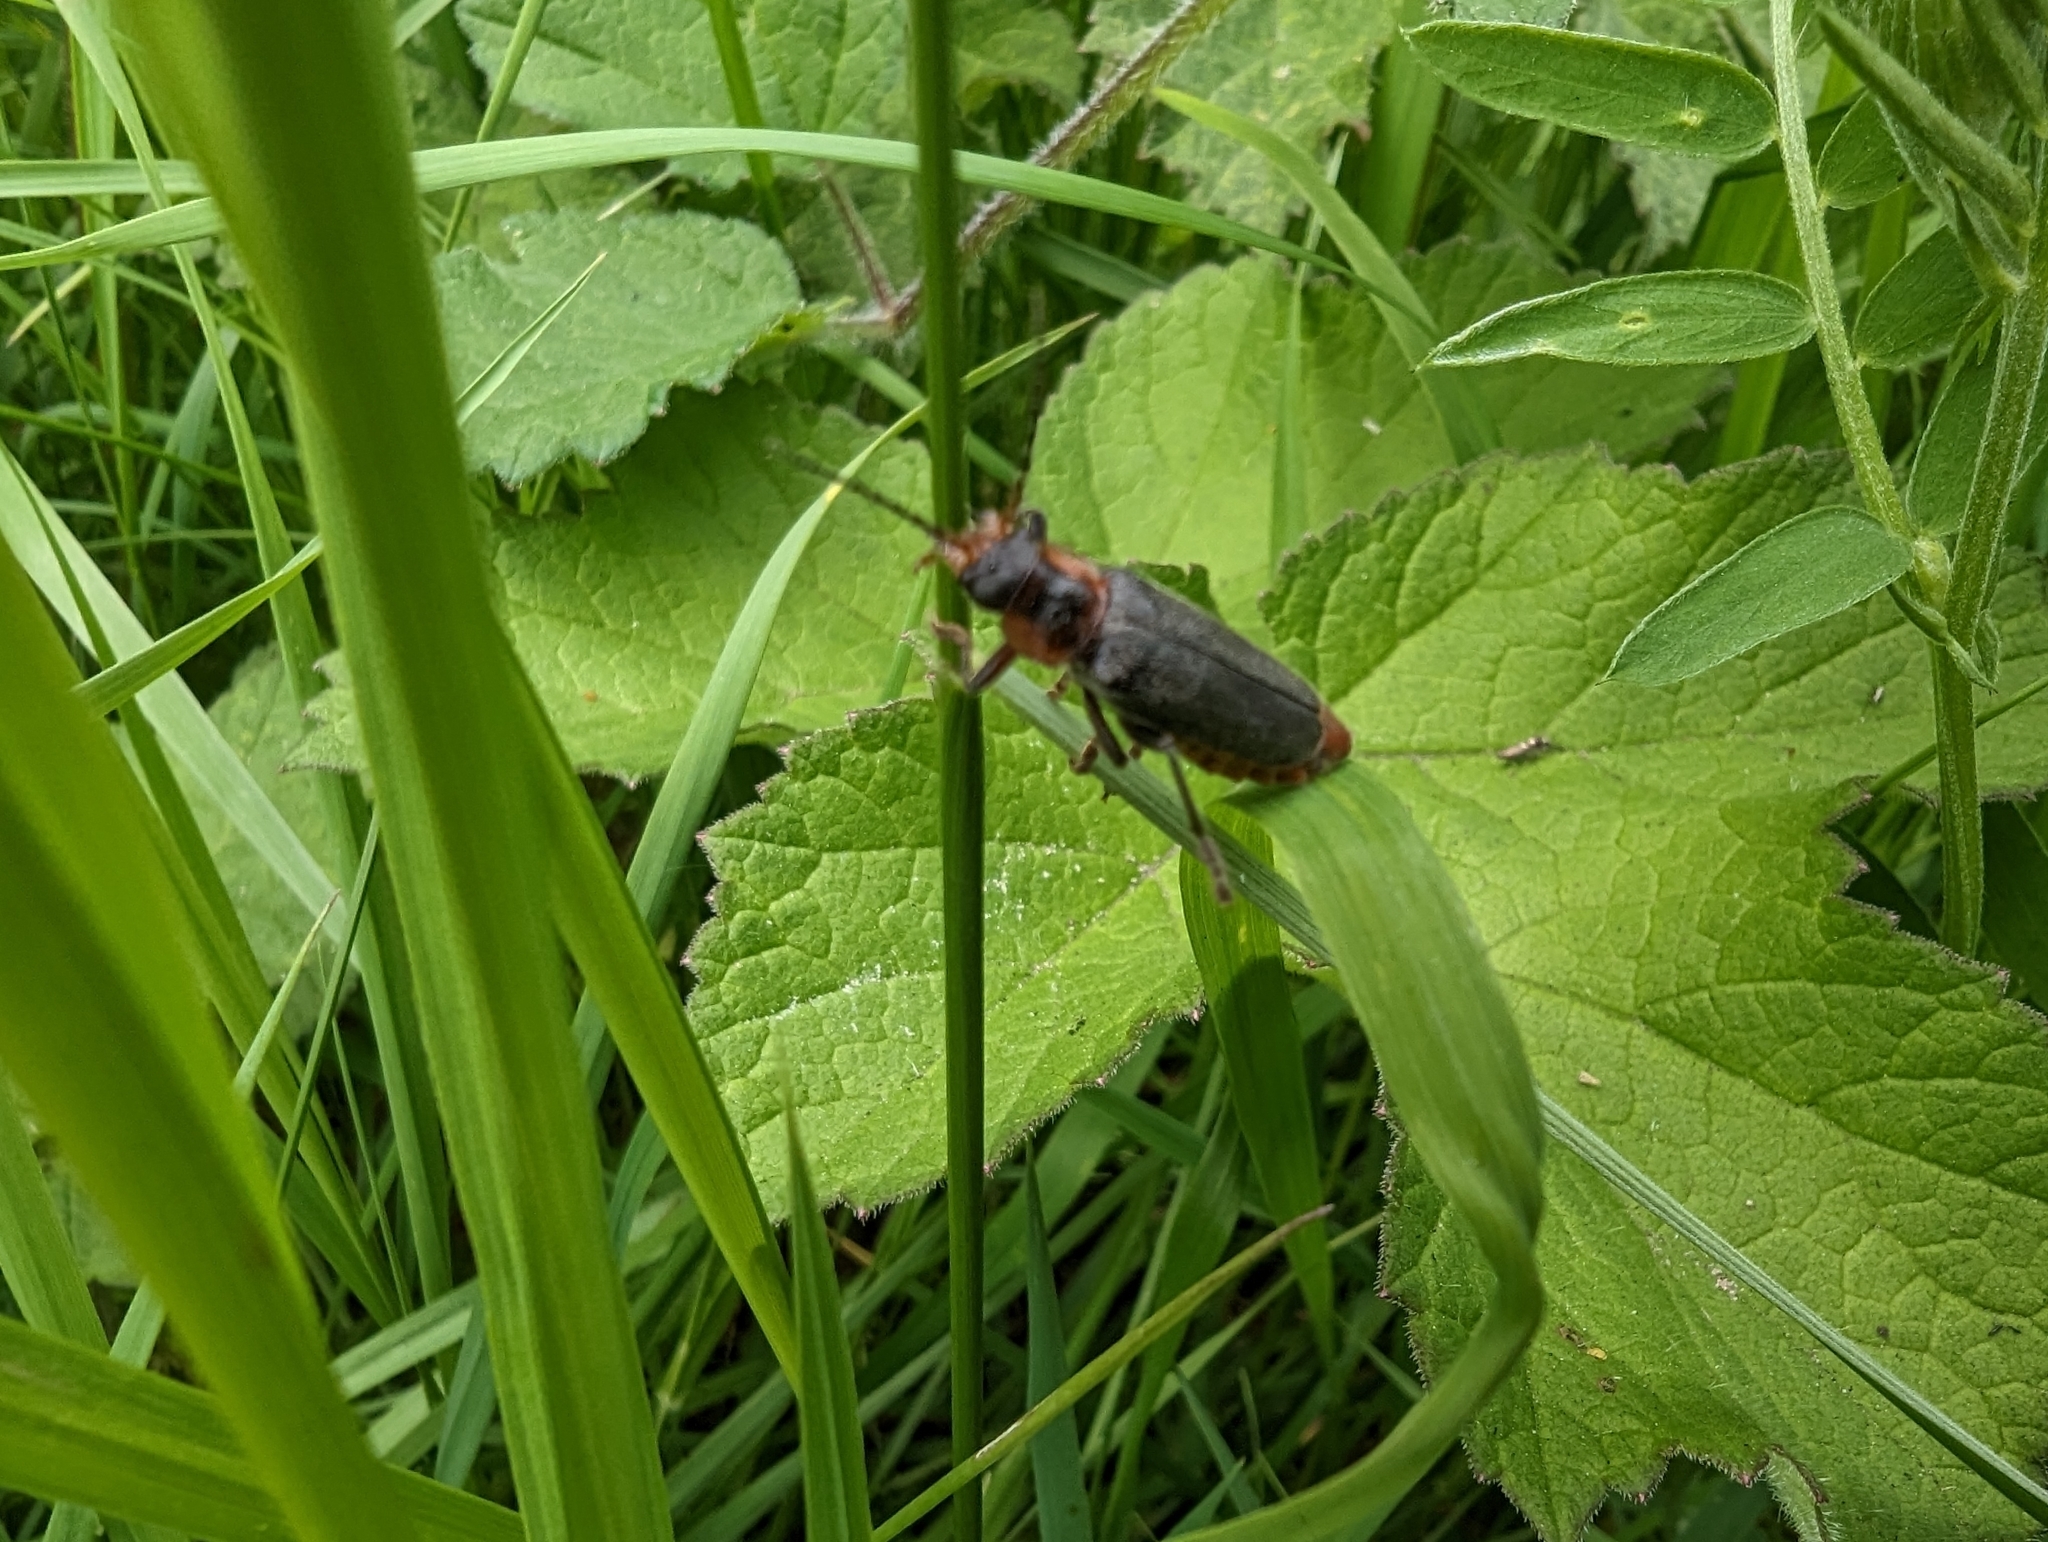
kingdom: Animalia
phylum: Arthropoda
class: Insecta
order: Coleoptera
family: Cantharidae
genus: Cantharis
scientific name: Cantharis rustica
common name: Soldier beetle
